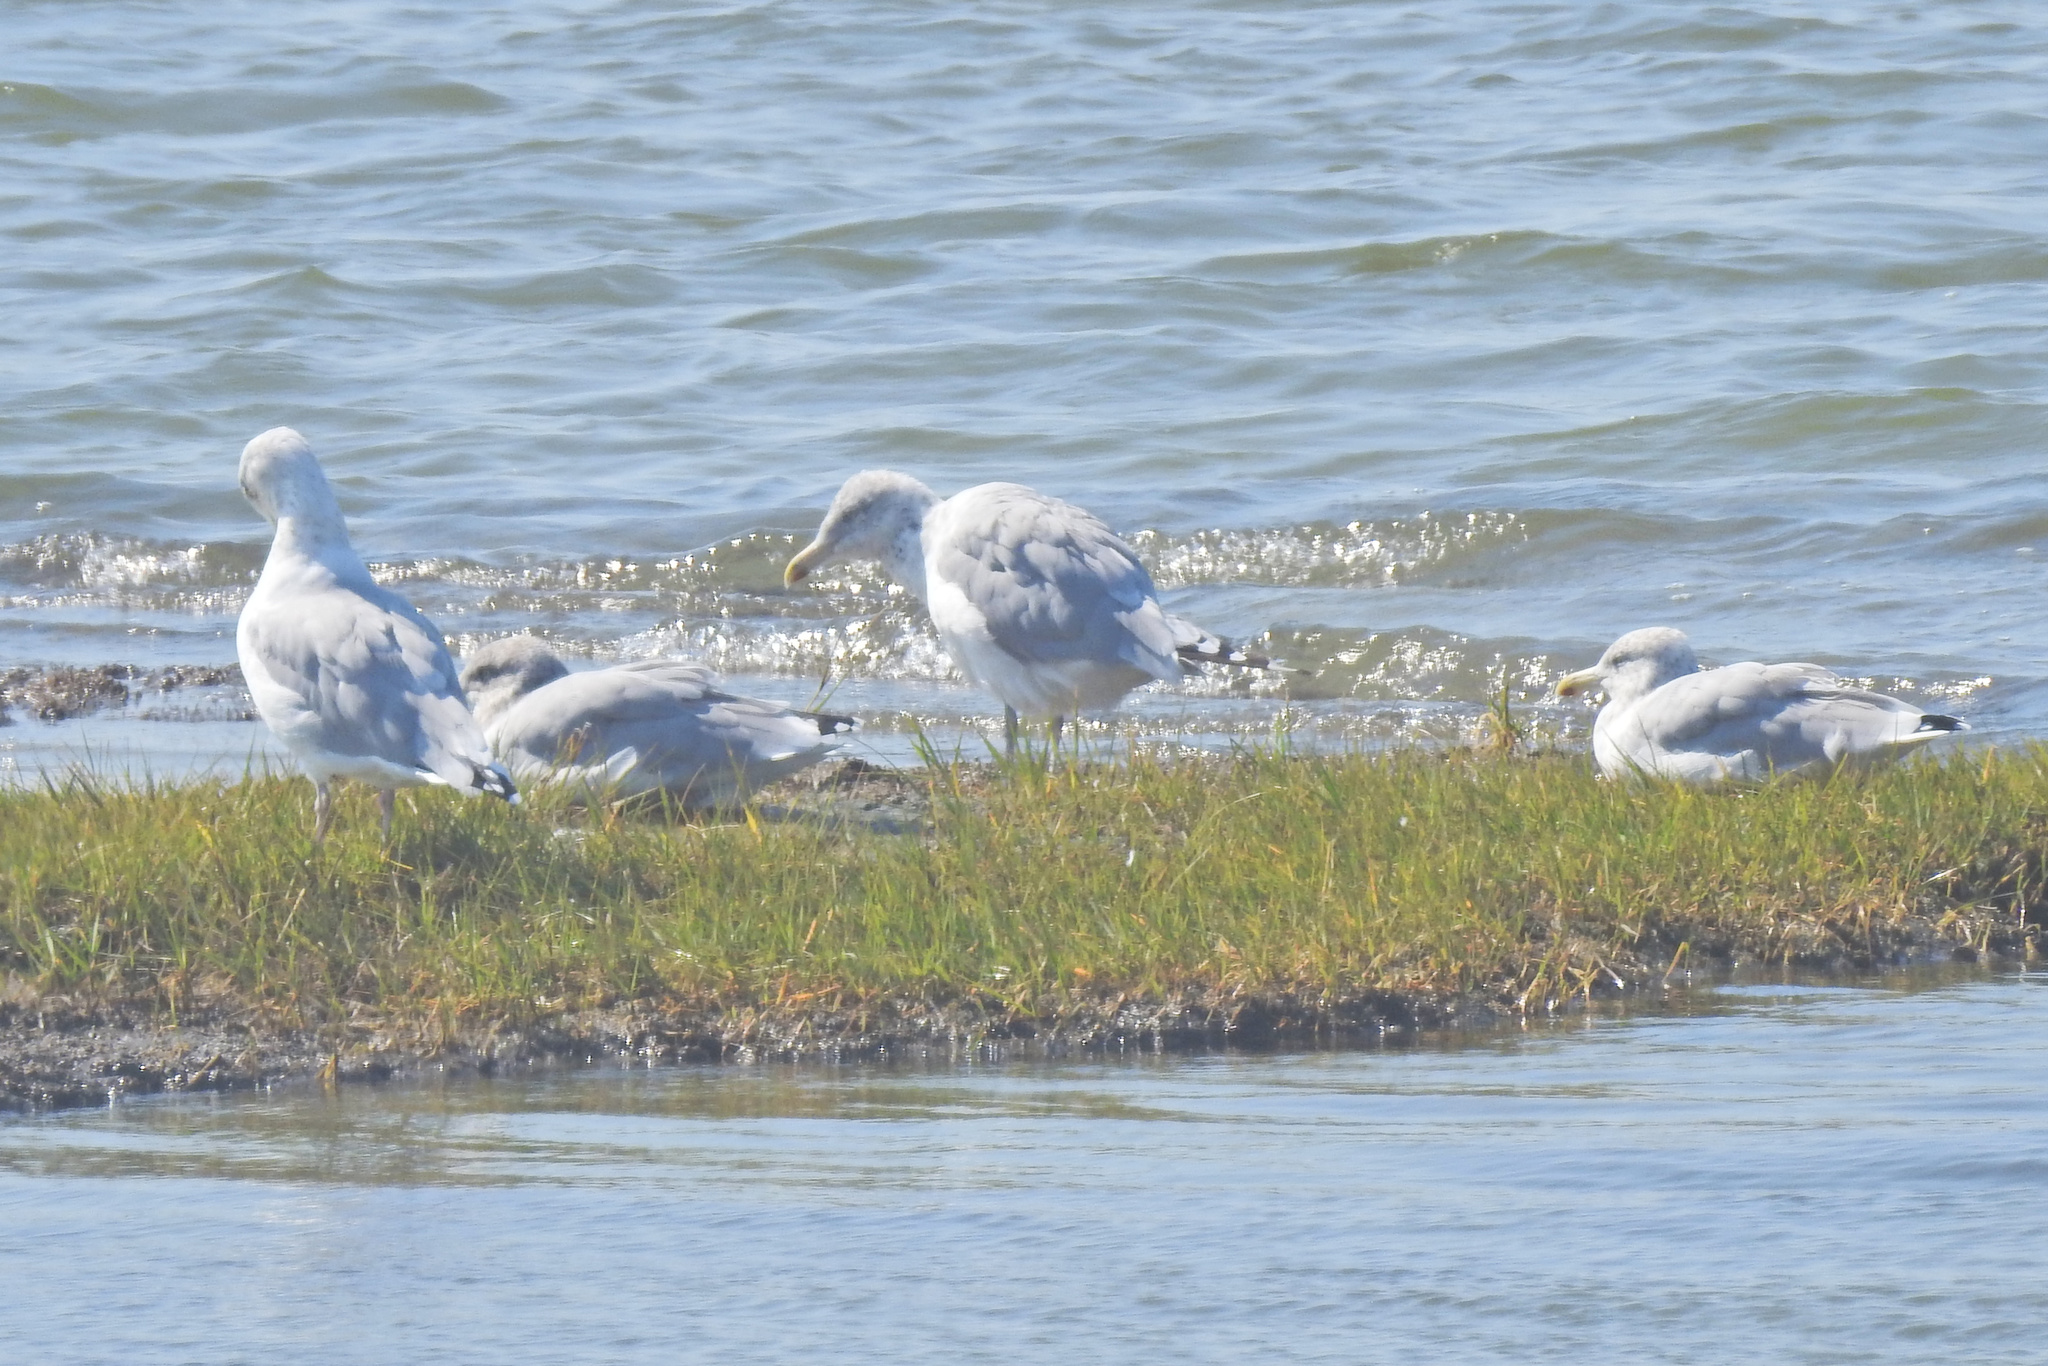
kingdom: Animalia
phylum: Chordata
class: Aves
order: Charadriiformes
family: Laridae
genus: Larus
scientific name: Larus argentatus
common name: Herring gull
